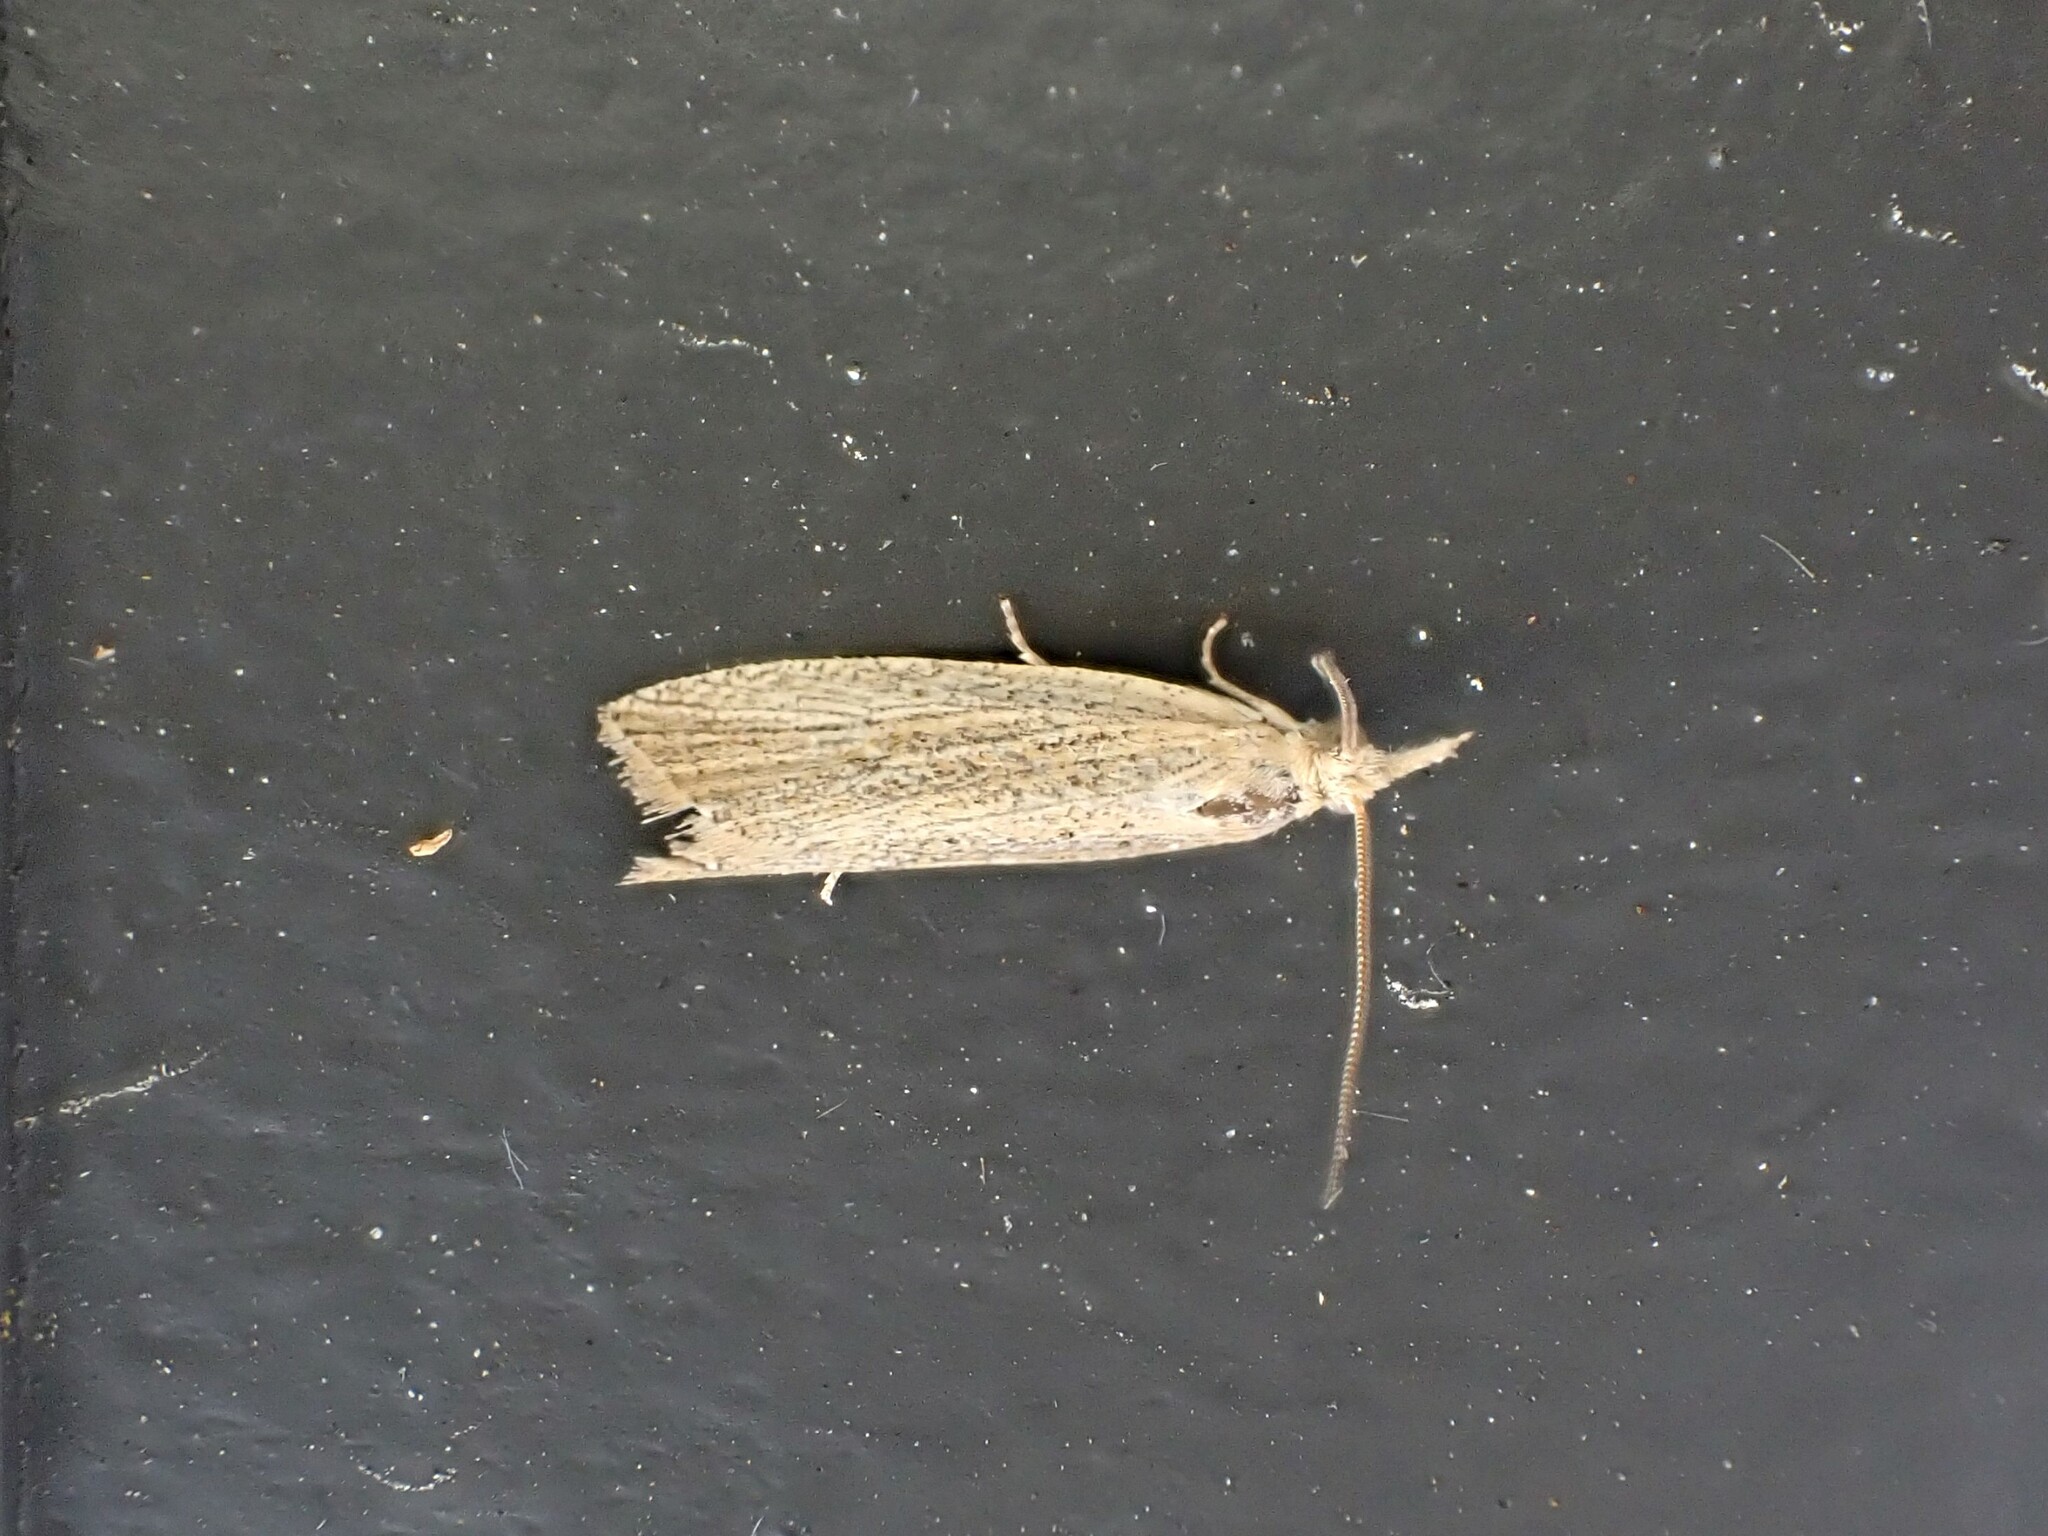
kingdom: Animalia
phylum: Arthropoda
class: Insecta
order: Lepidoptera
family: Tortricidae
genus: Bactra
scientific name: Bactra noteraula
